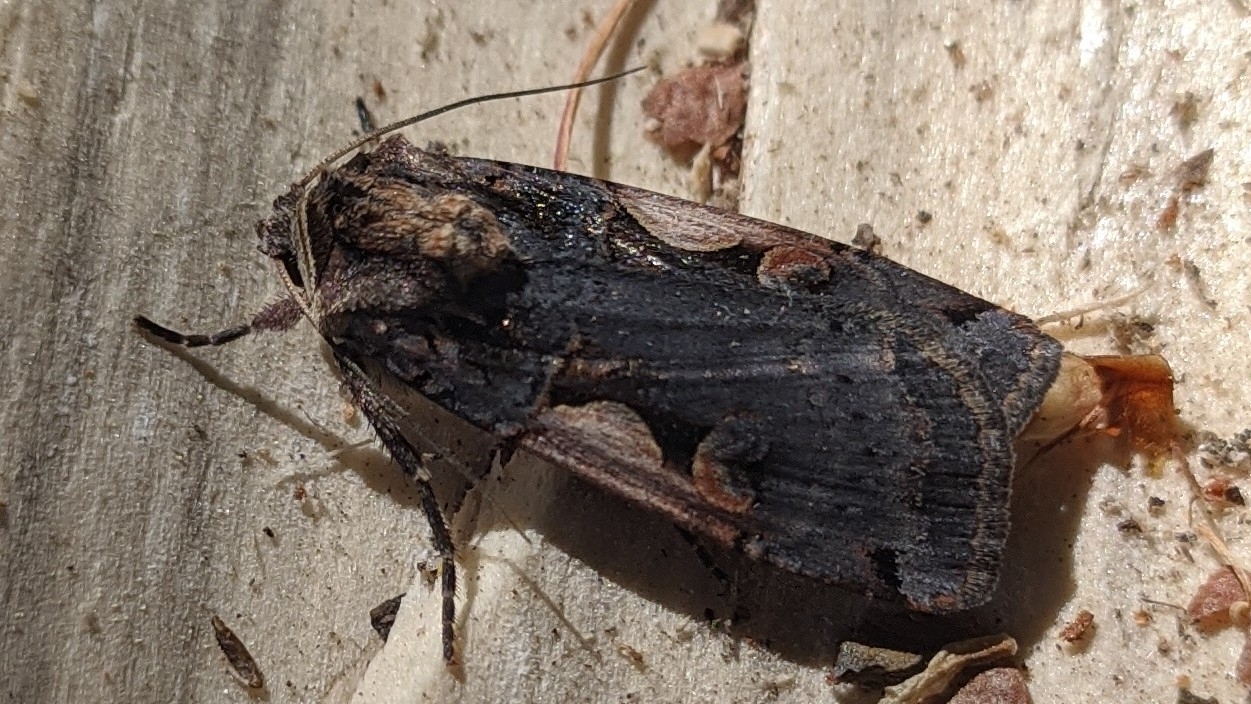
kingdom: Animalia
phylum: Arthropoda
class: Insecta
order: Lepidoptera
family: Noctuidae
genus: Xestia
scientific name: Xestia c-nigrum
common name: Setaceous hebrew character
